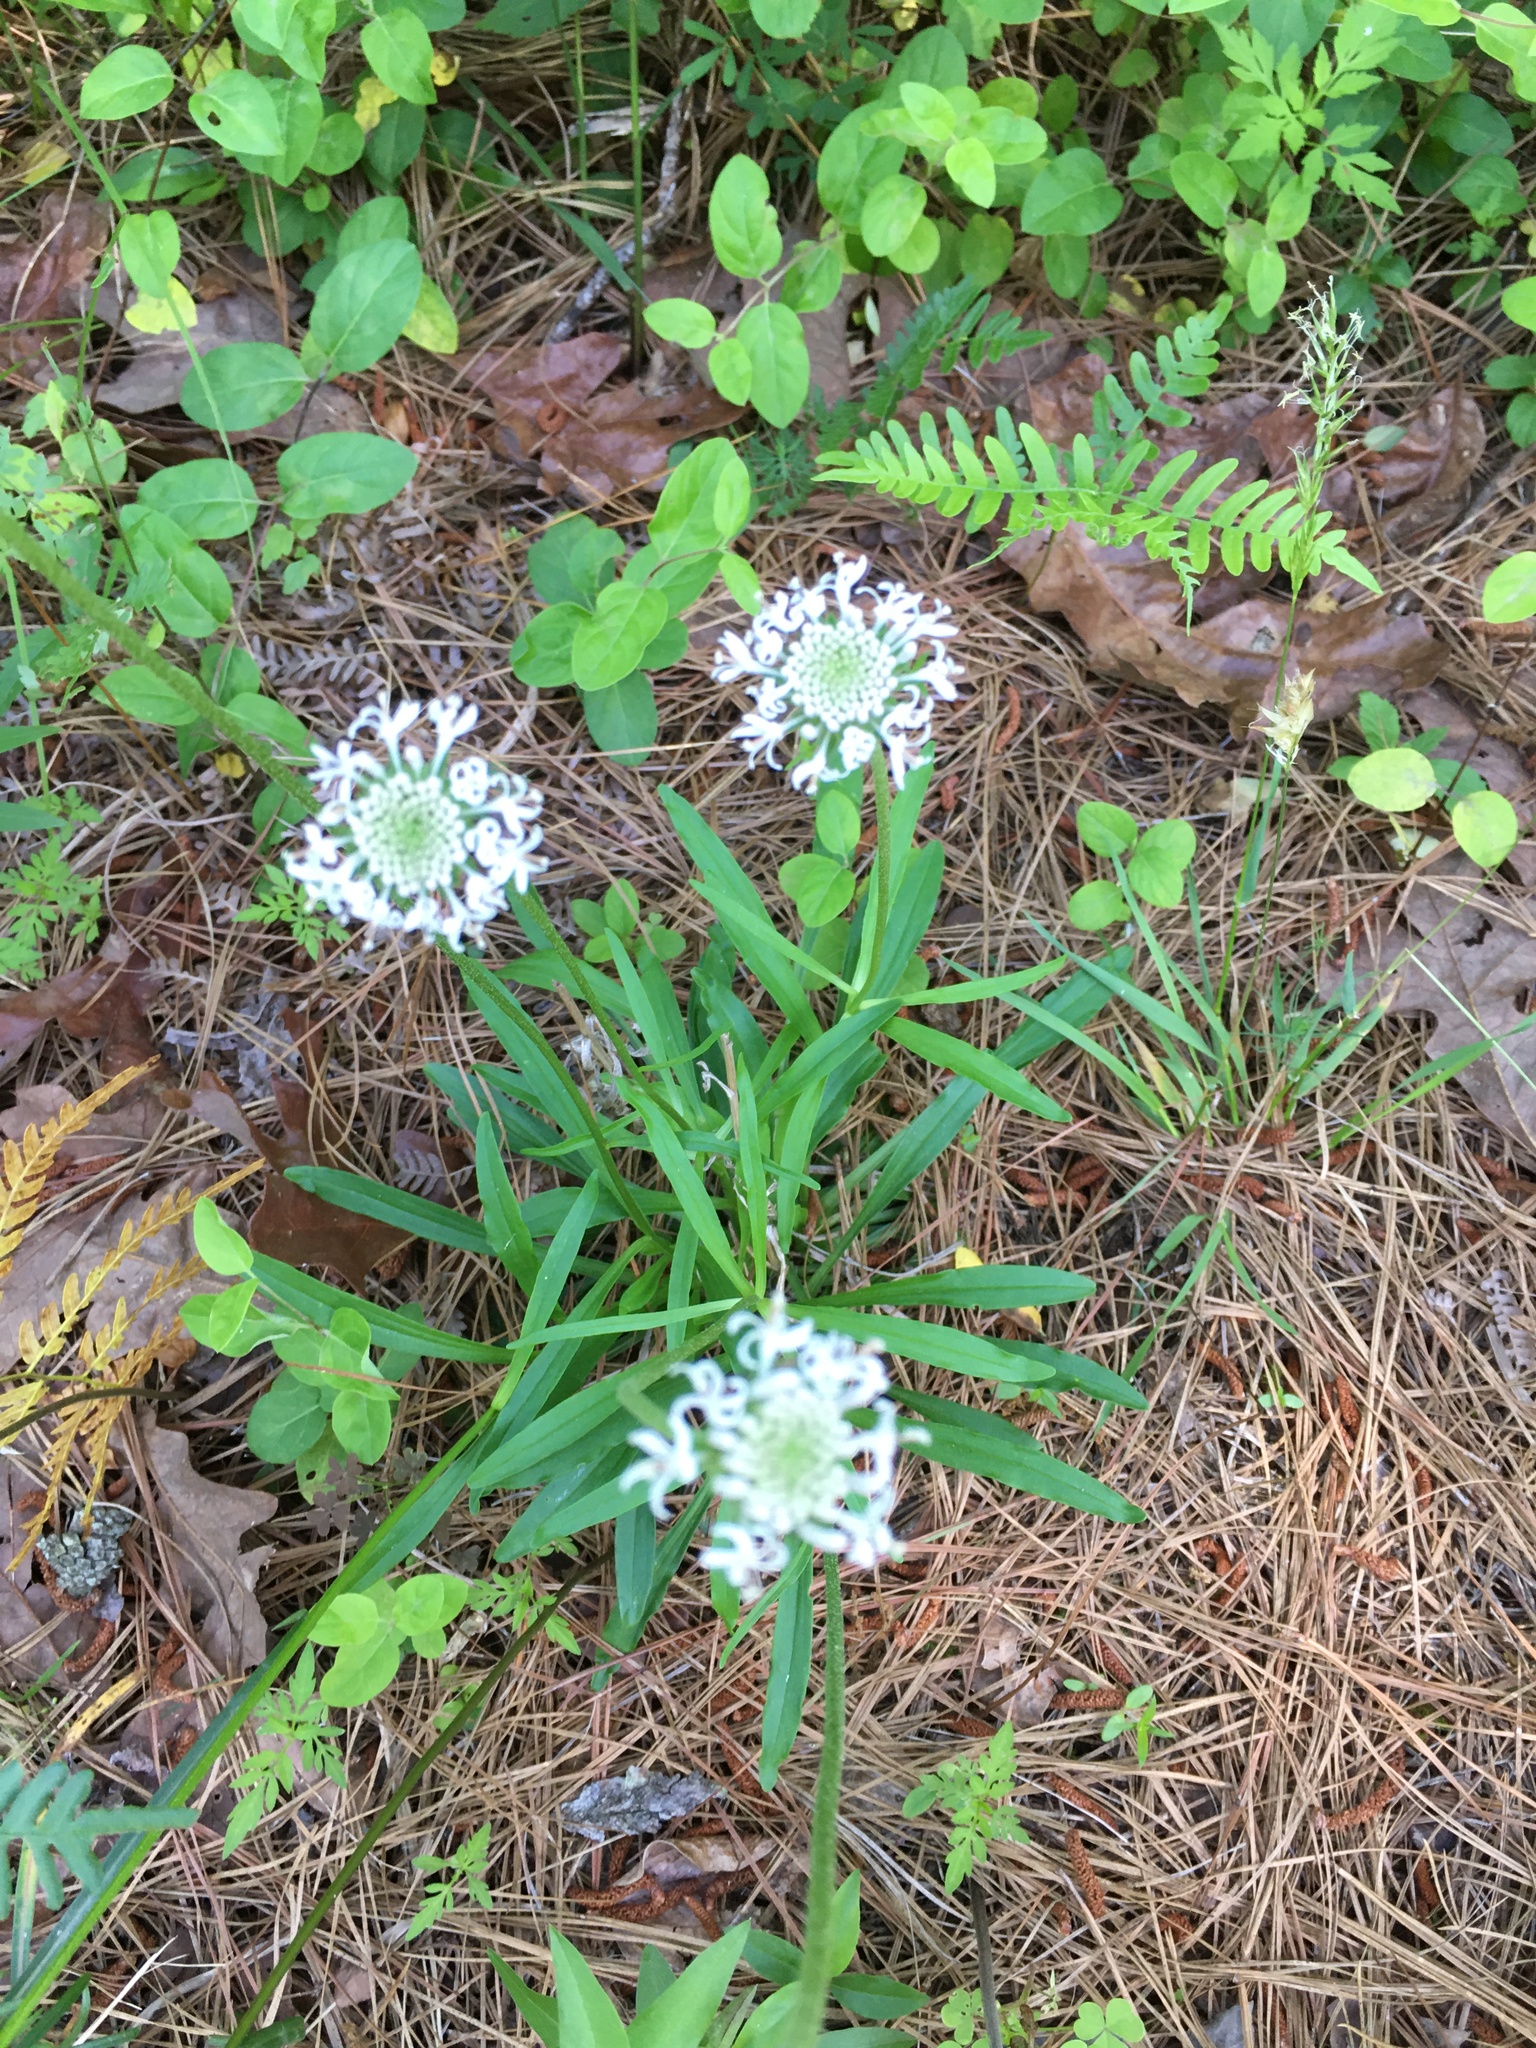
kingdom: Plantae
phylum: Tracheophyta
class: Magnoliopsida
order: Asterales
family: Asteraceae
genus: Marshallia
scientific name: Marshallia obovata
